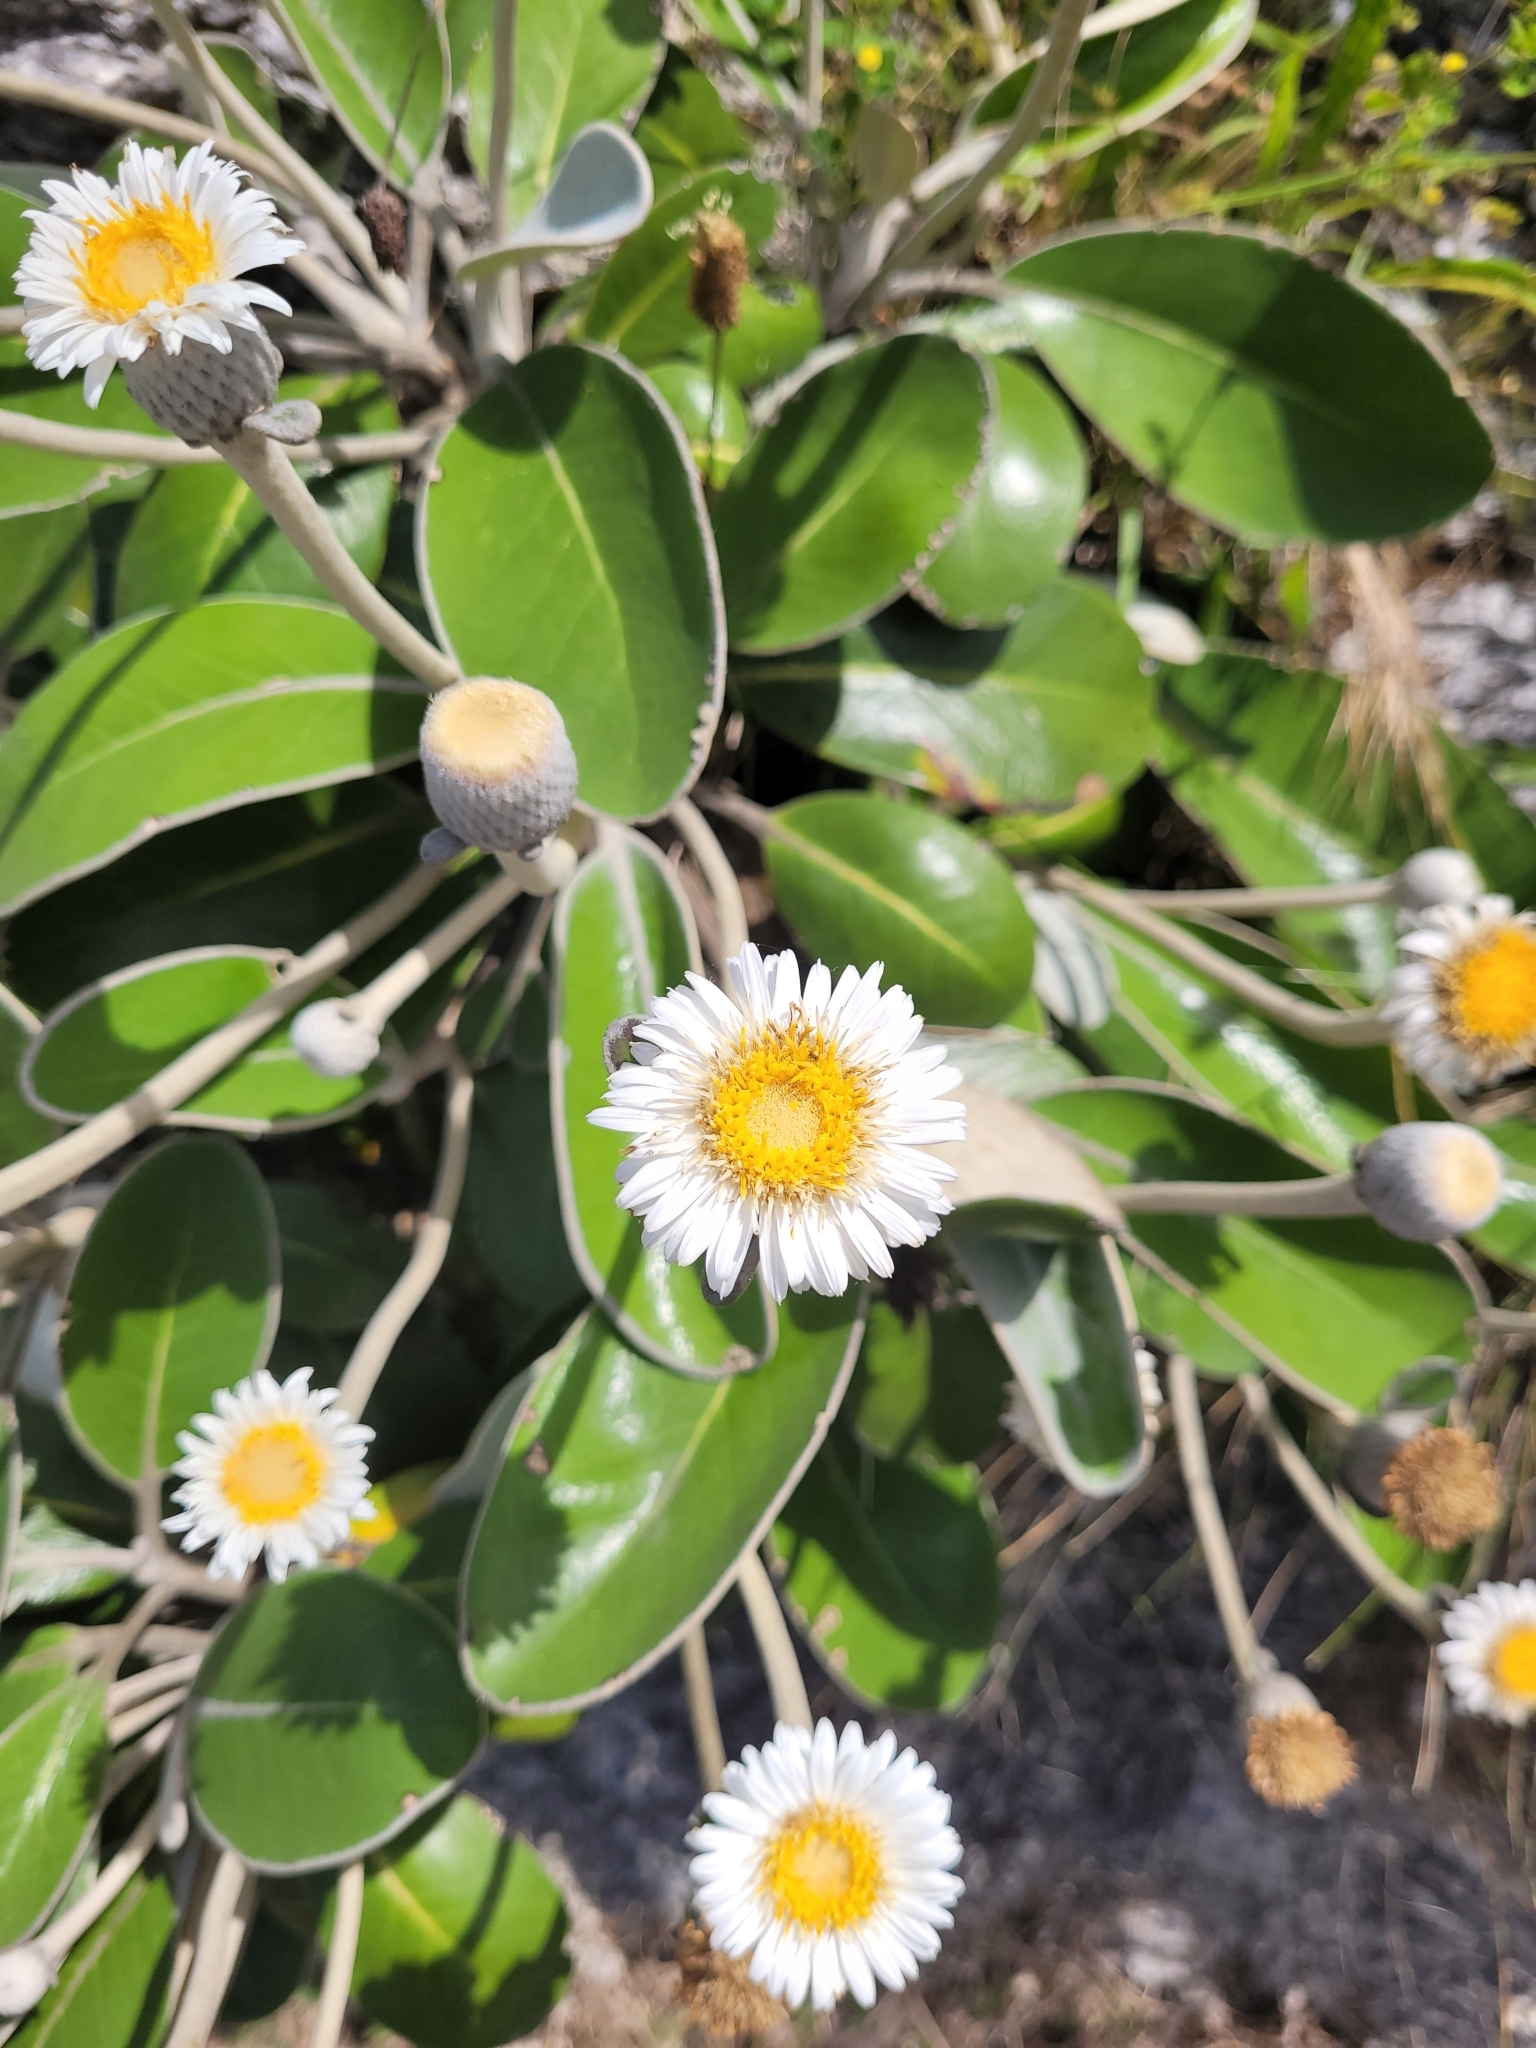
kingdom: Plantae
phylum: Tracheophyta
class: Magnoliopsida
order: Asterales
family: Asteraceae
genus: Pachystegia
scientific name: Pachystegia insignis
